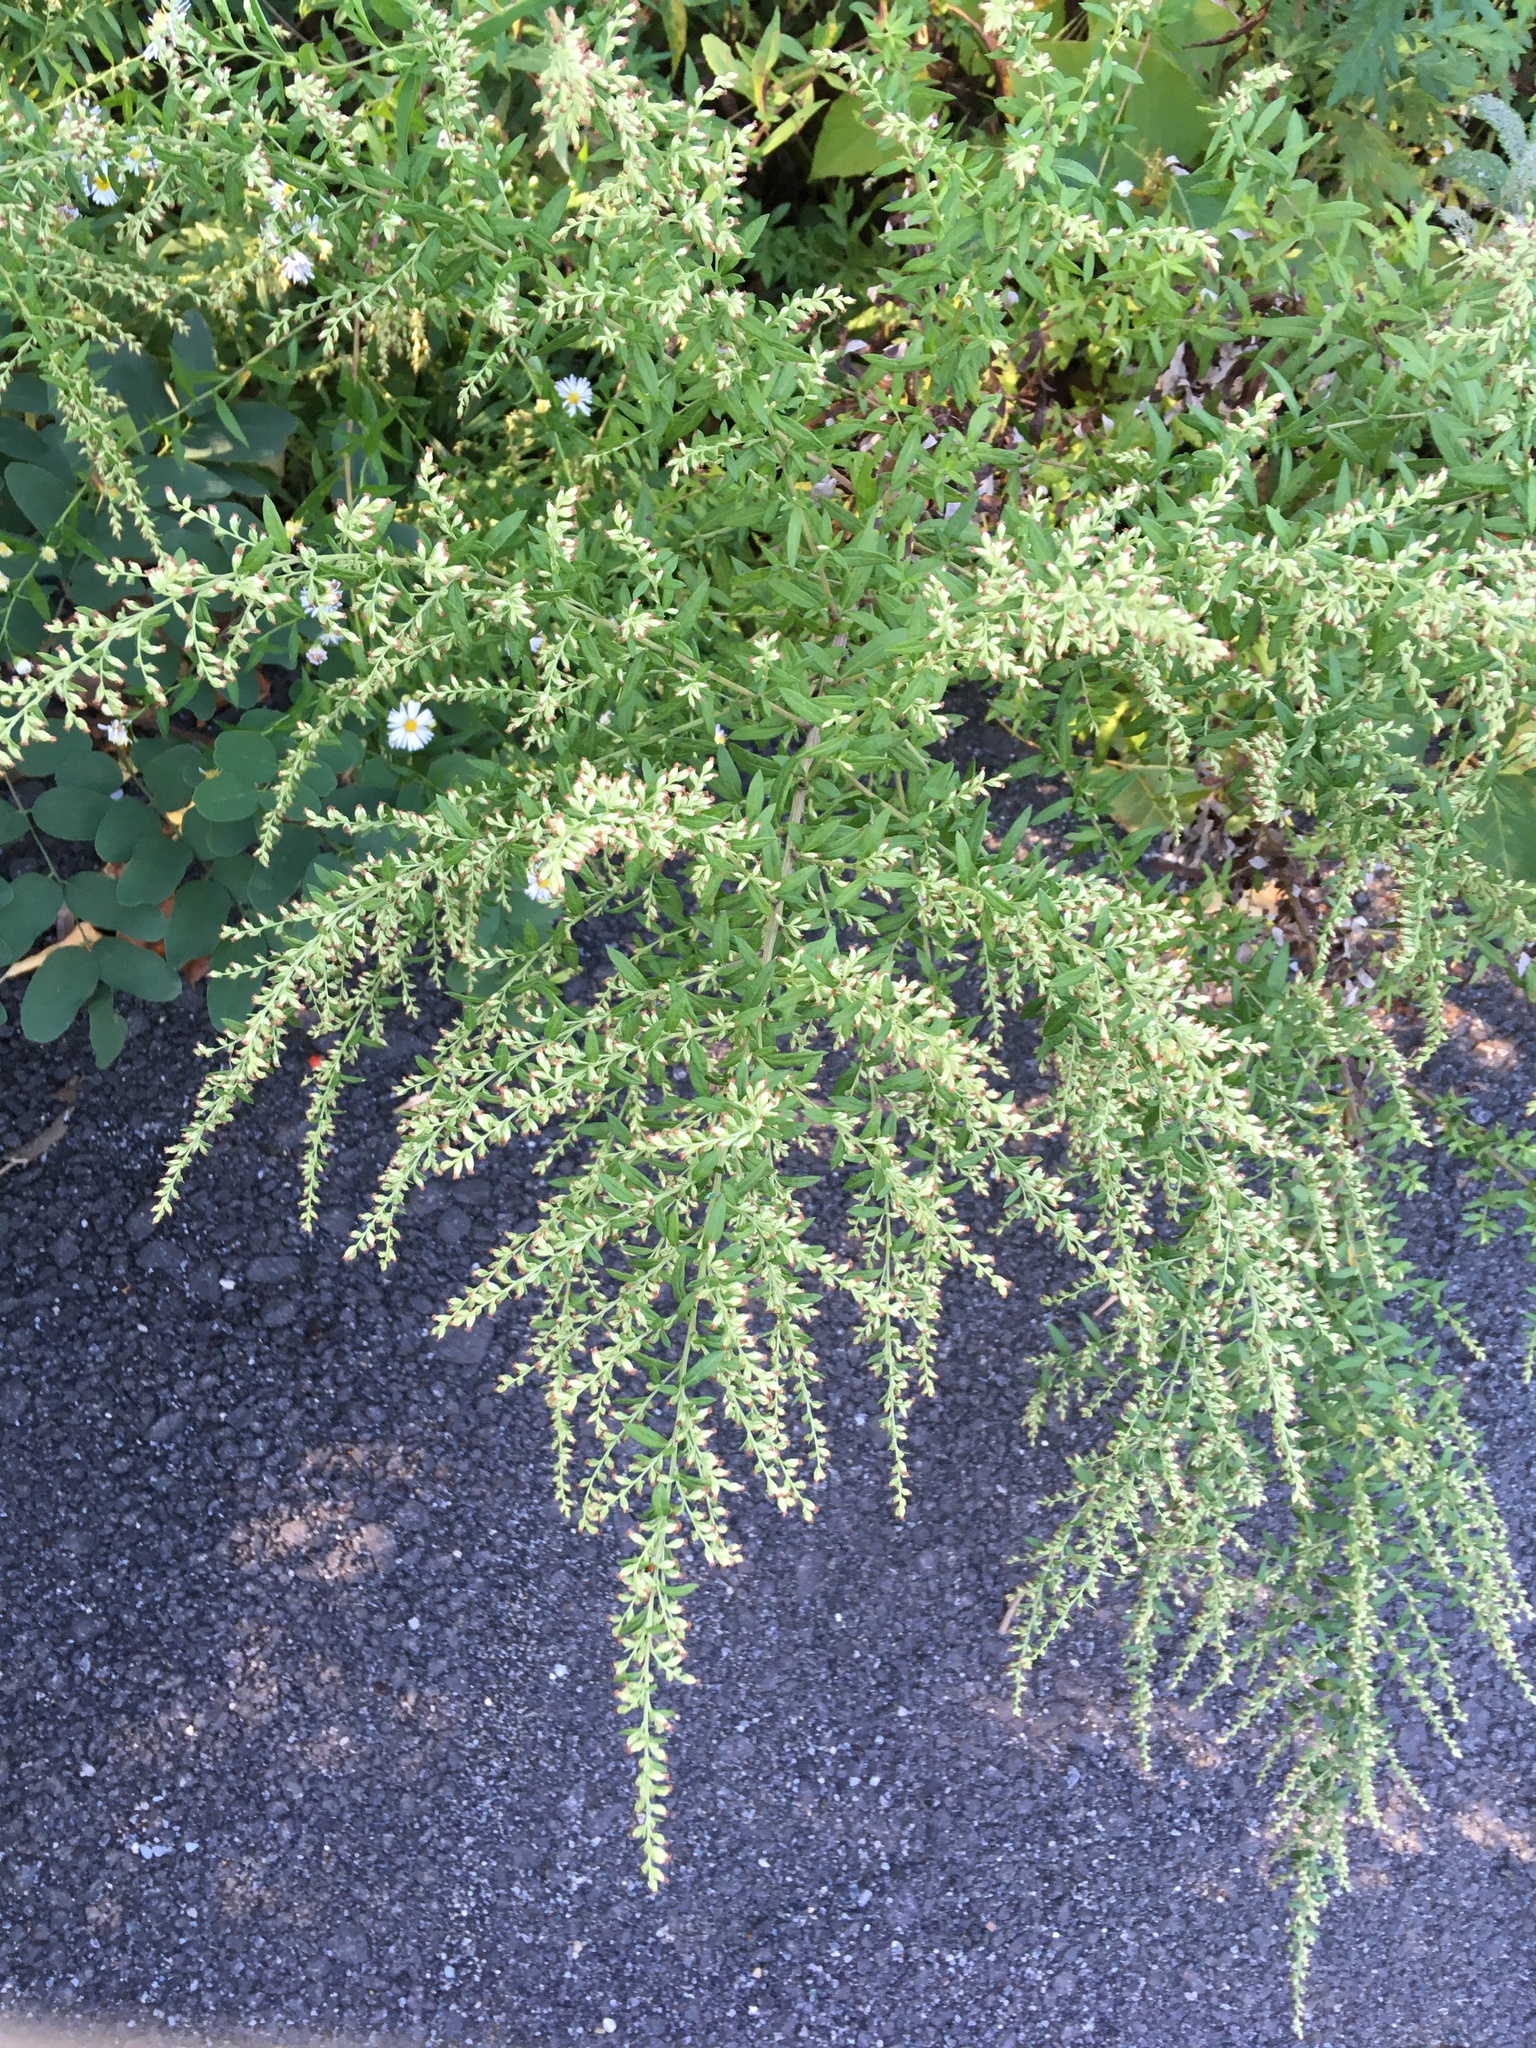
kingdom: Plantae
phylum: Tracheophyta
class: Magnoliopsida
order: Asterales
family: Asteraceae
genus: Artemisia
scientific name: Artemisia vulgaris
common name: Mugwort
